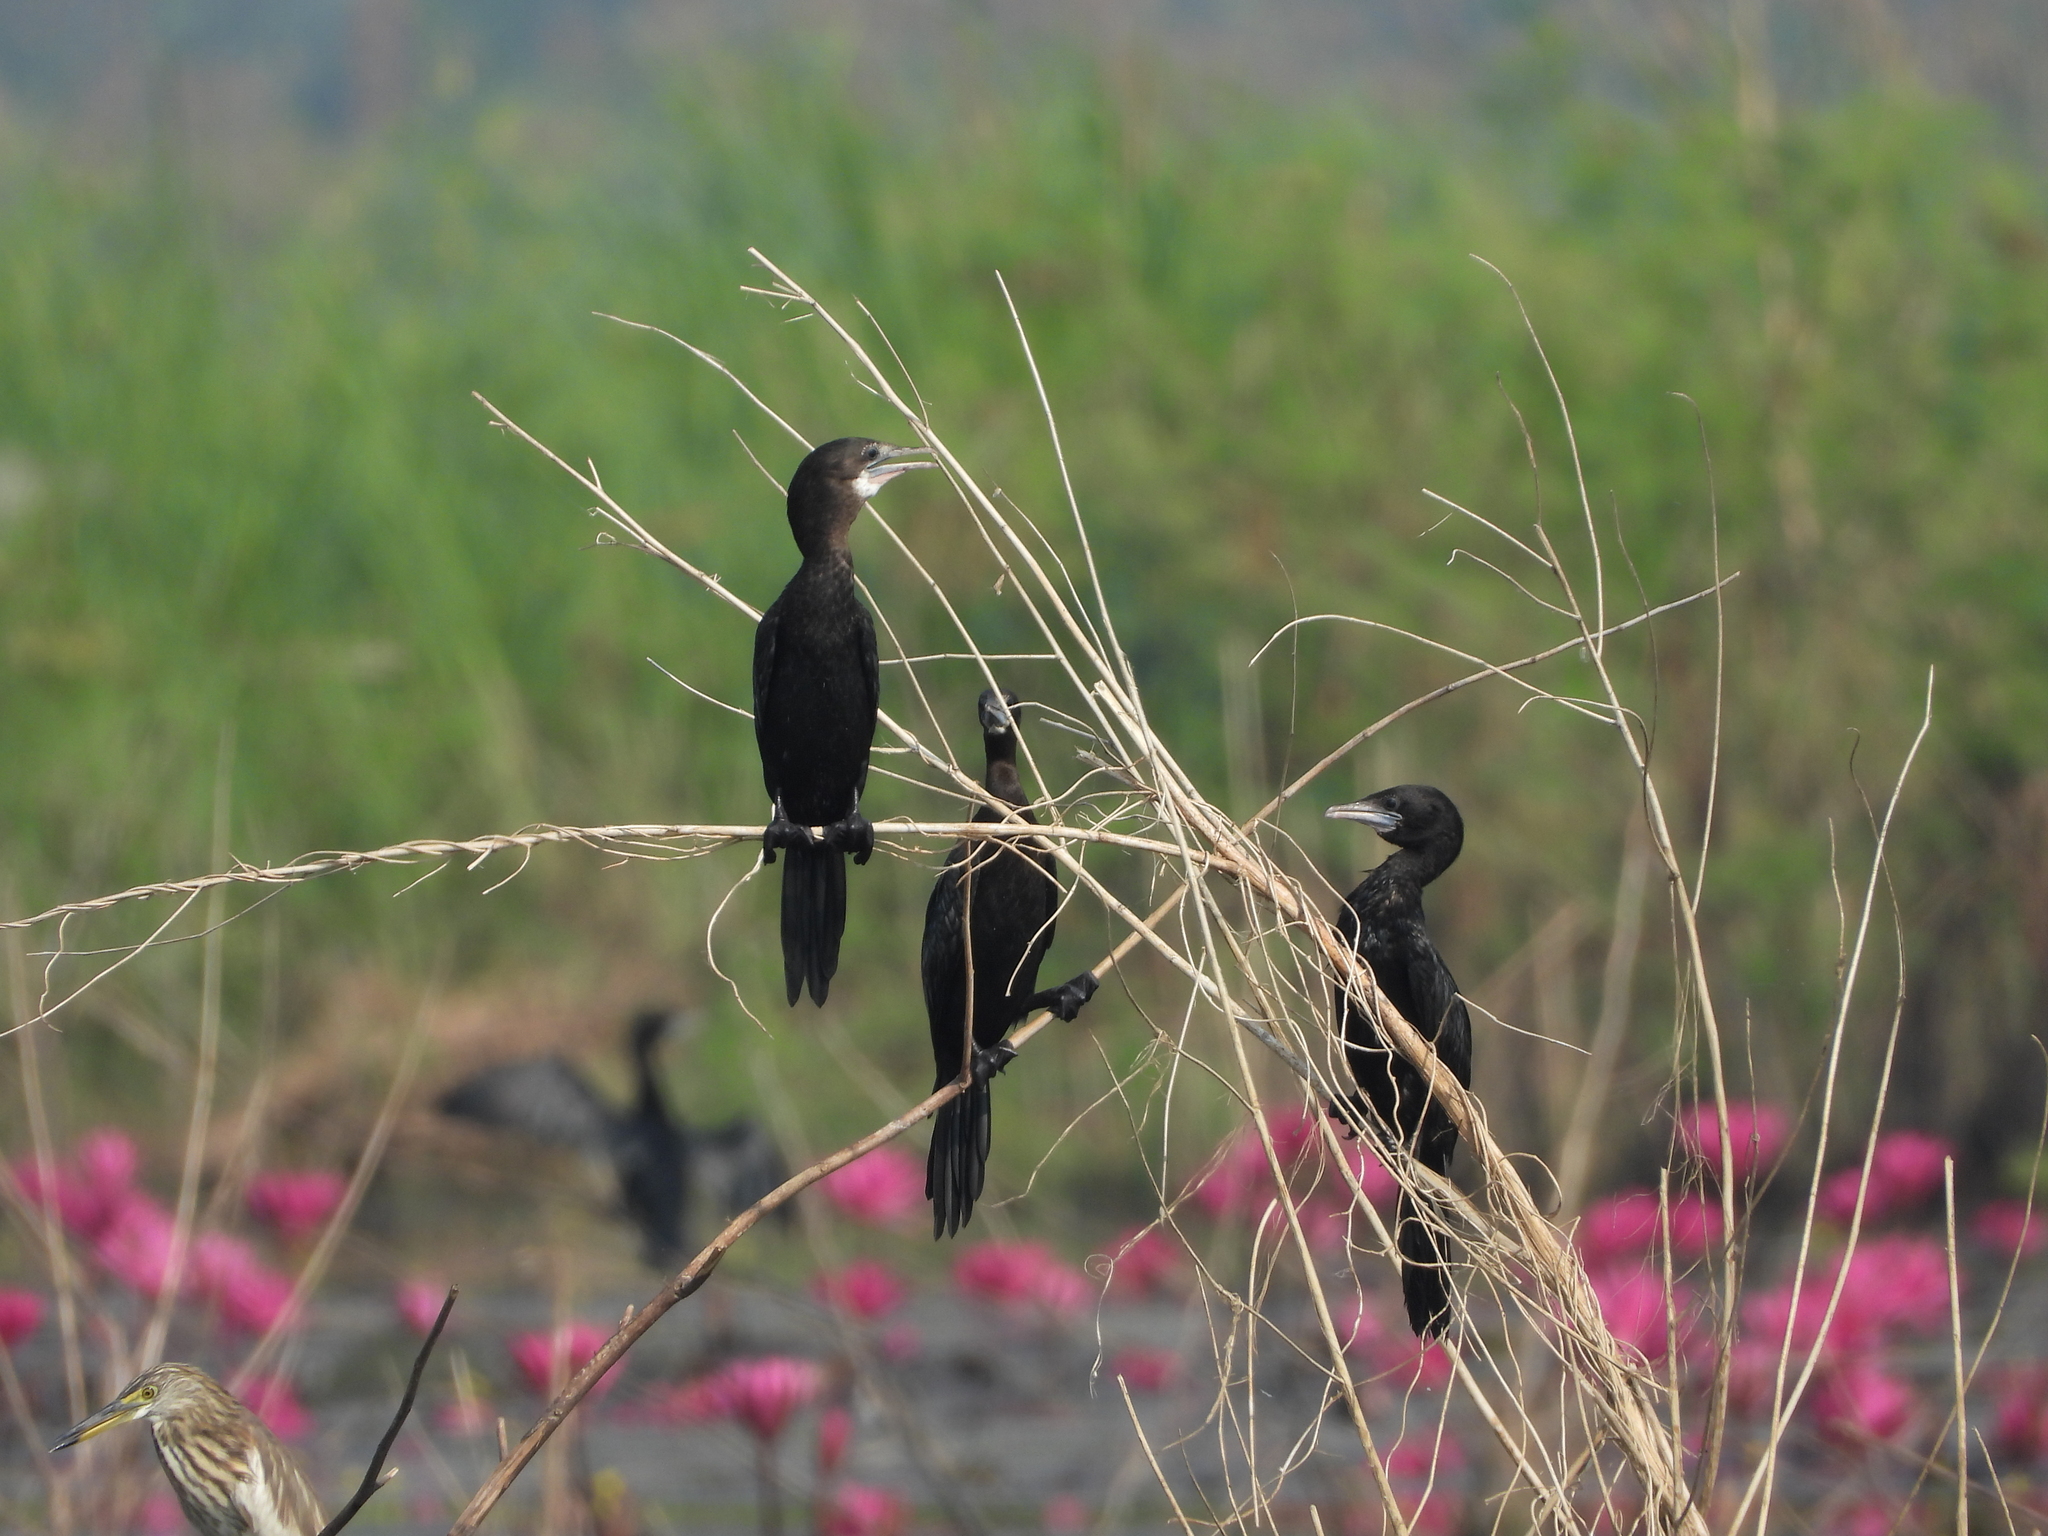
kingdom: Animalia
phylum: Chordata
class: Aves
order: Suliformes
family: Phalacrocoracidae
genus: Microcarbo
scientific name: Microcarbo niger
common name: Little cormorant
